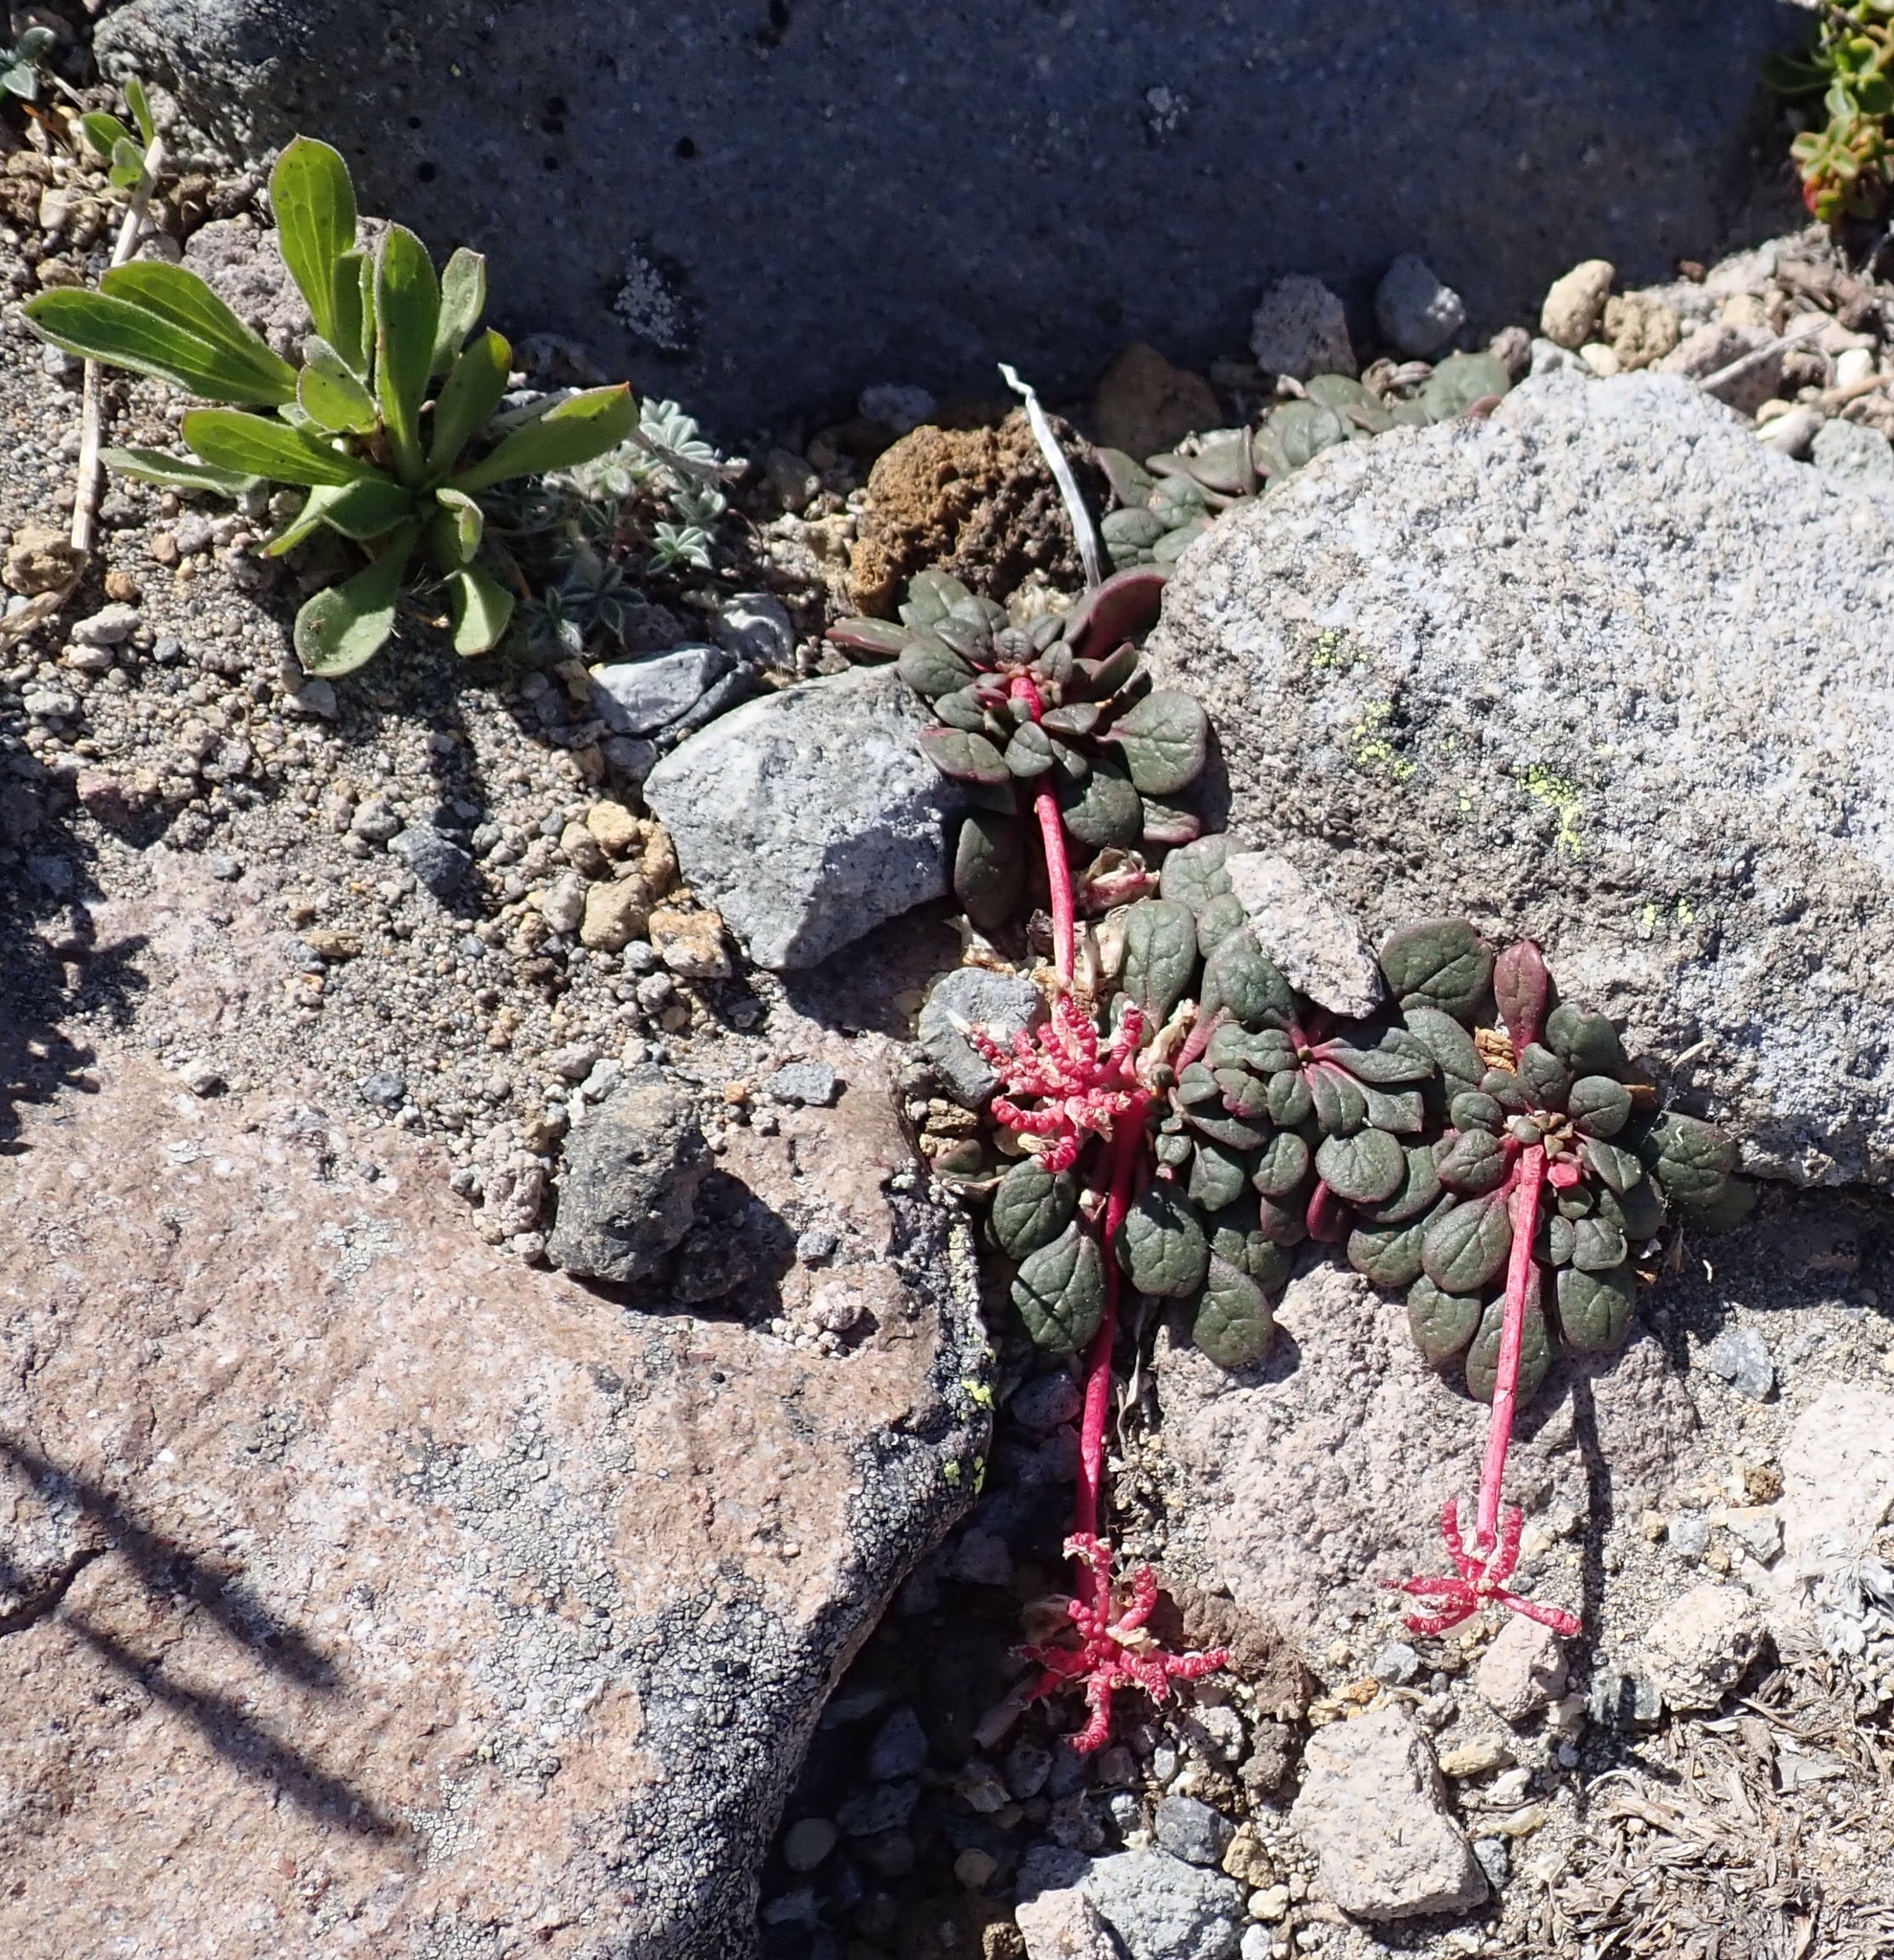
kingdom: Plantae
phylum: Tracheophyta
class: Magnoliopsida
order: Caryophyllales
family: Montiaceae
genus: Calyptridium
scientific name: Calyptridium umbellatum
